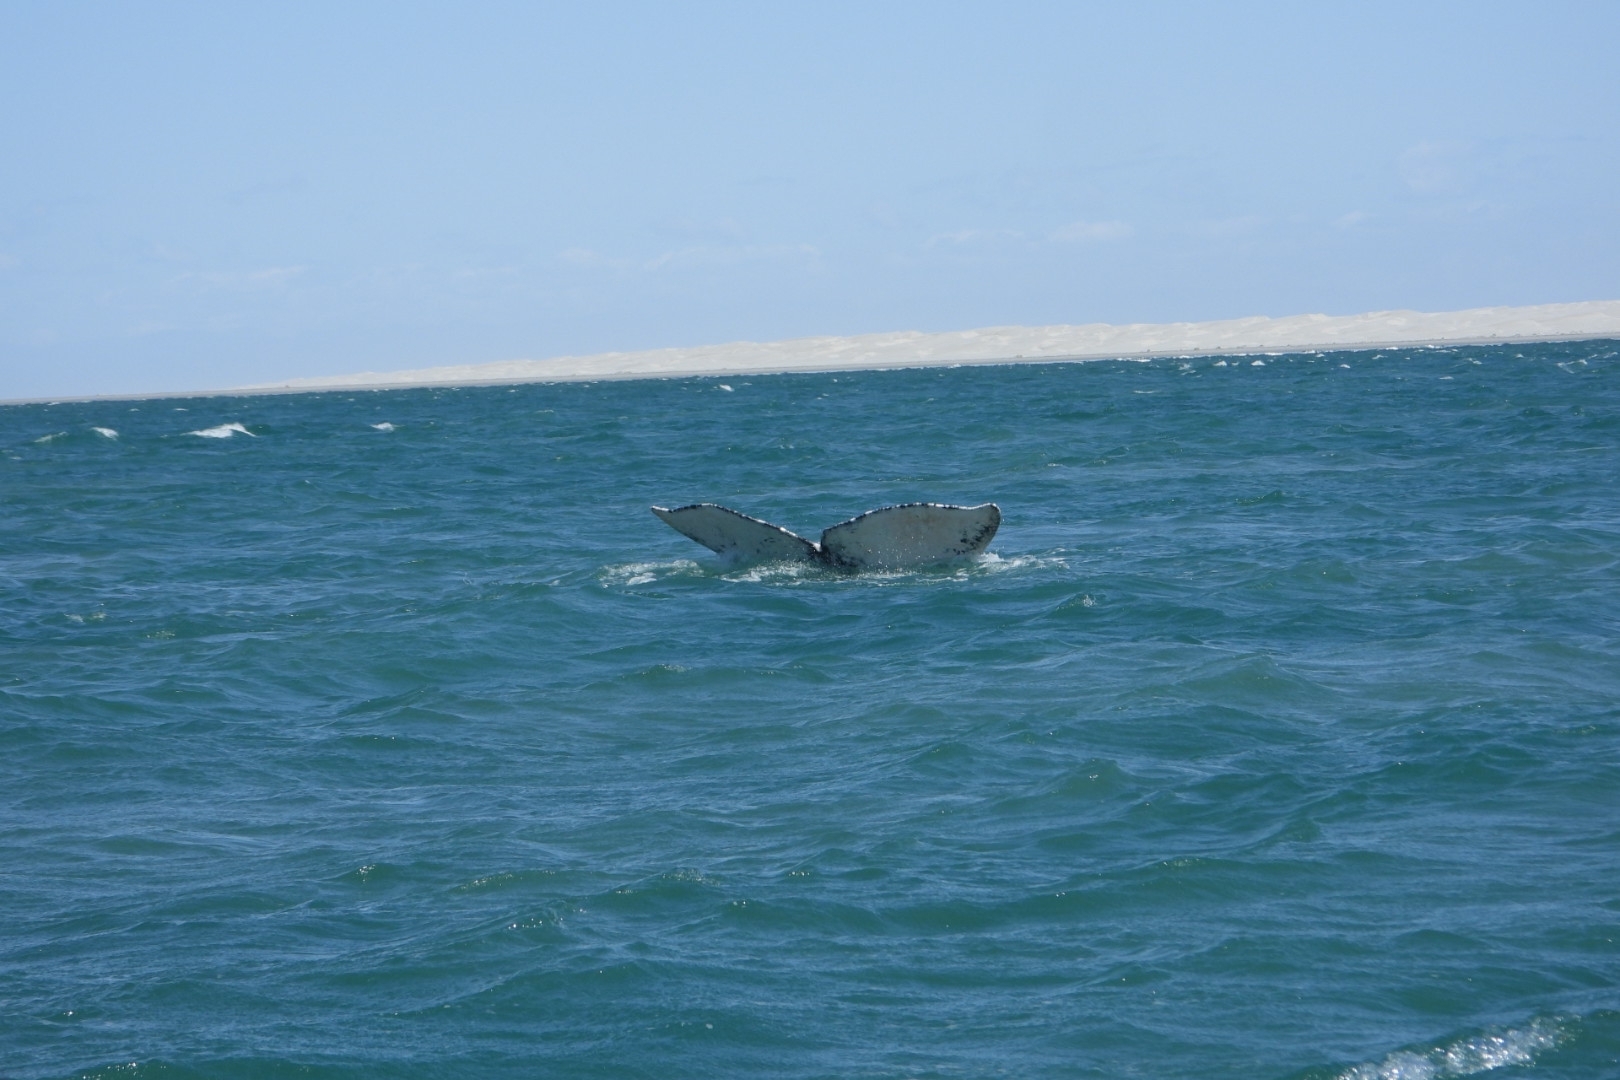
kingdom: Animalia
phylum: Chordata
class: Mammalia
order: Cetacea
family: Eschrichtiidae
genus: Eschrichtius
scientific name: Eschrichtius robustus
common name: Gray whale
